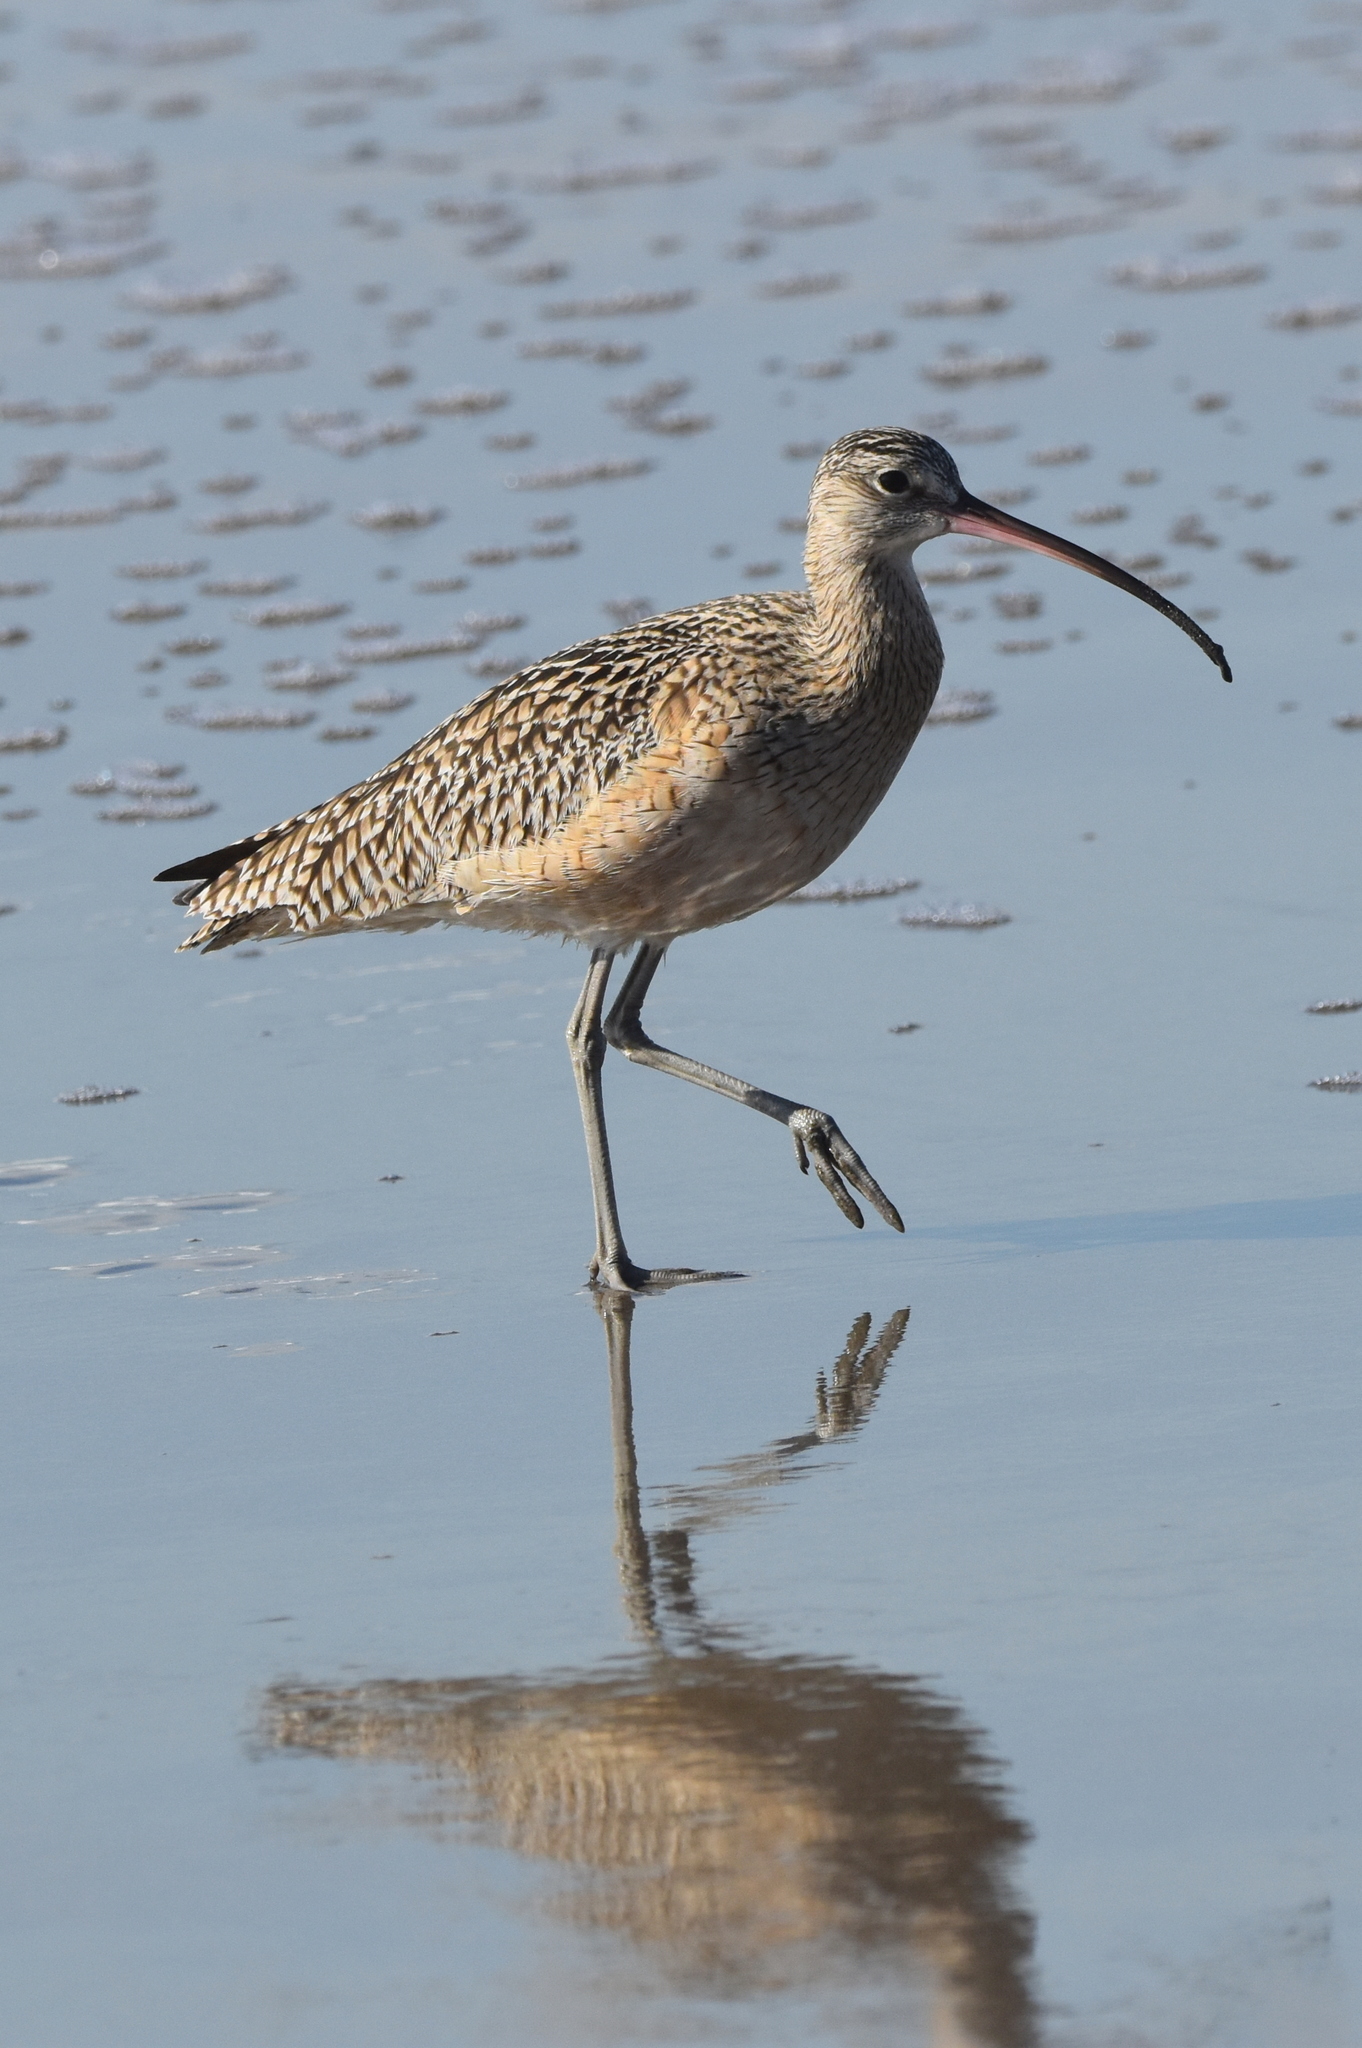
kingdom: Animalia
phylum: Chordata
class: Aves
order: Charadriiformes
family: Scolopacidae
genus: Numenius
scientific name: Numenius americanus
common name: Long-billed curlew
